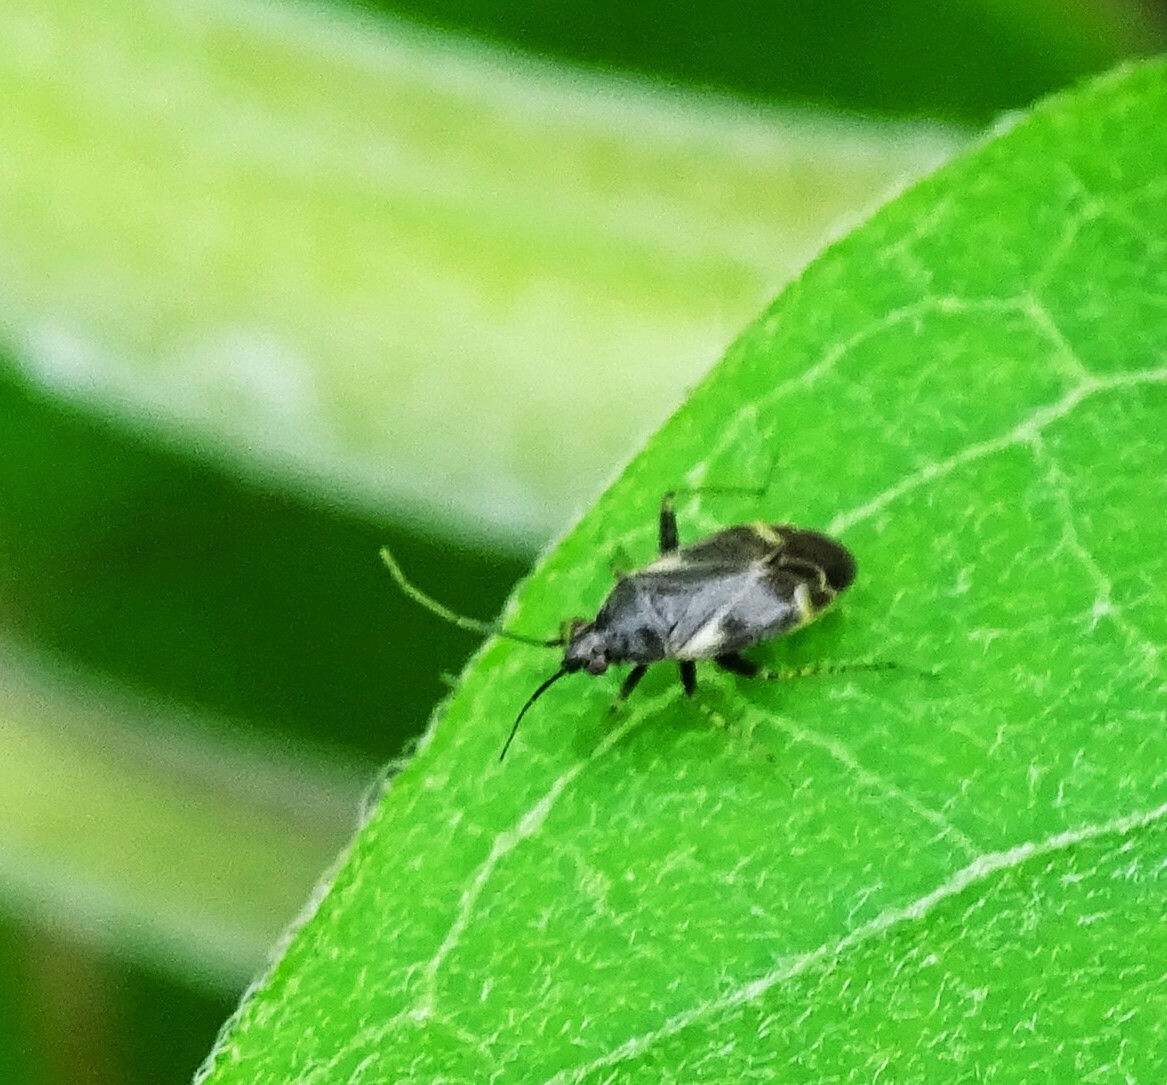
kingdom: Animalia
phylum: Arthropoda
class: Insecta
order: Hemiptera
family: Miridae
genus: Plagiognathus
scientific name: Plagiognathus obscurus
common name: Obscure plant bug
